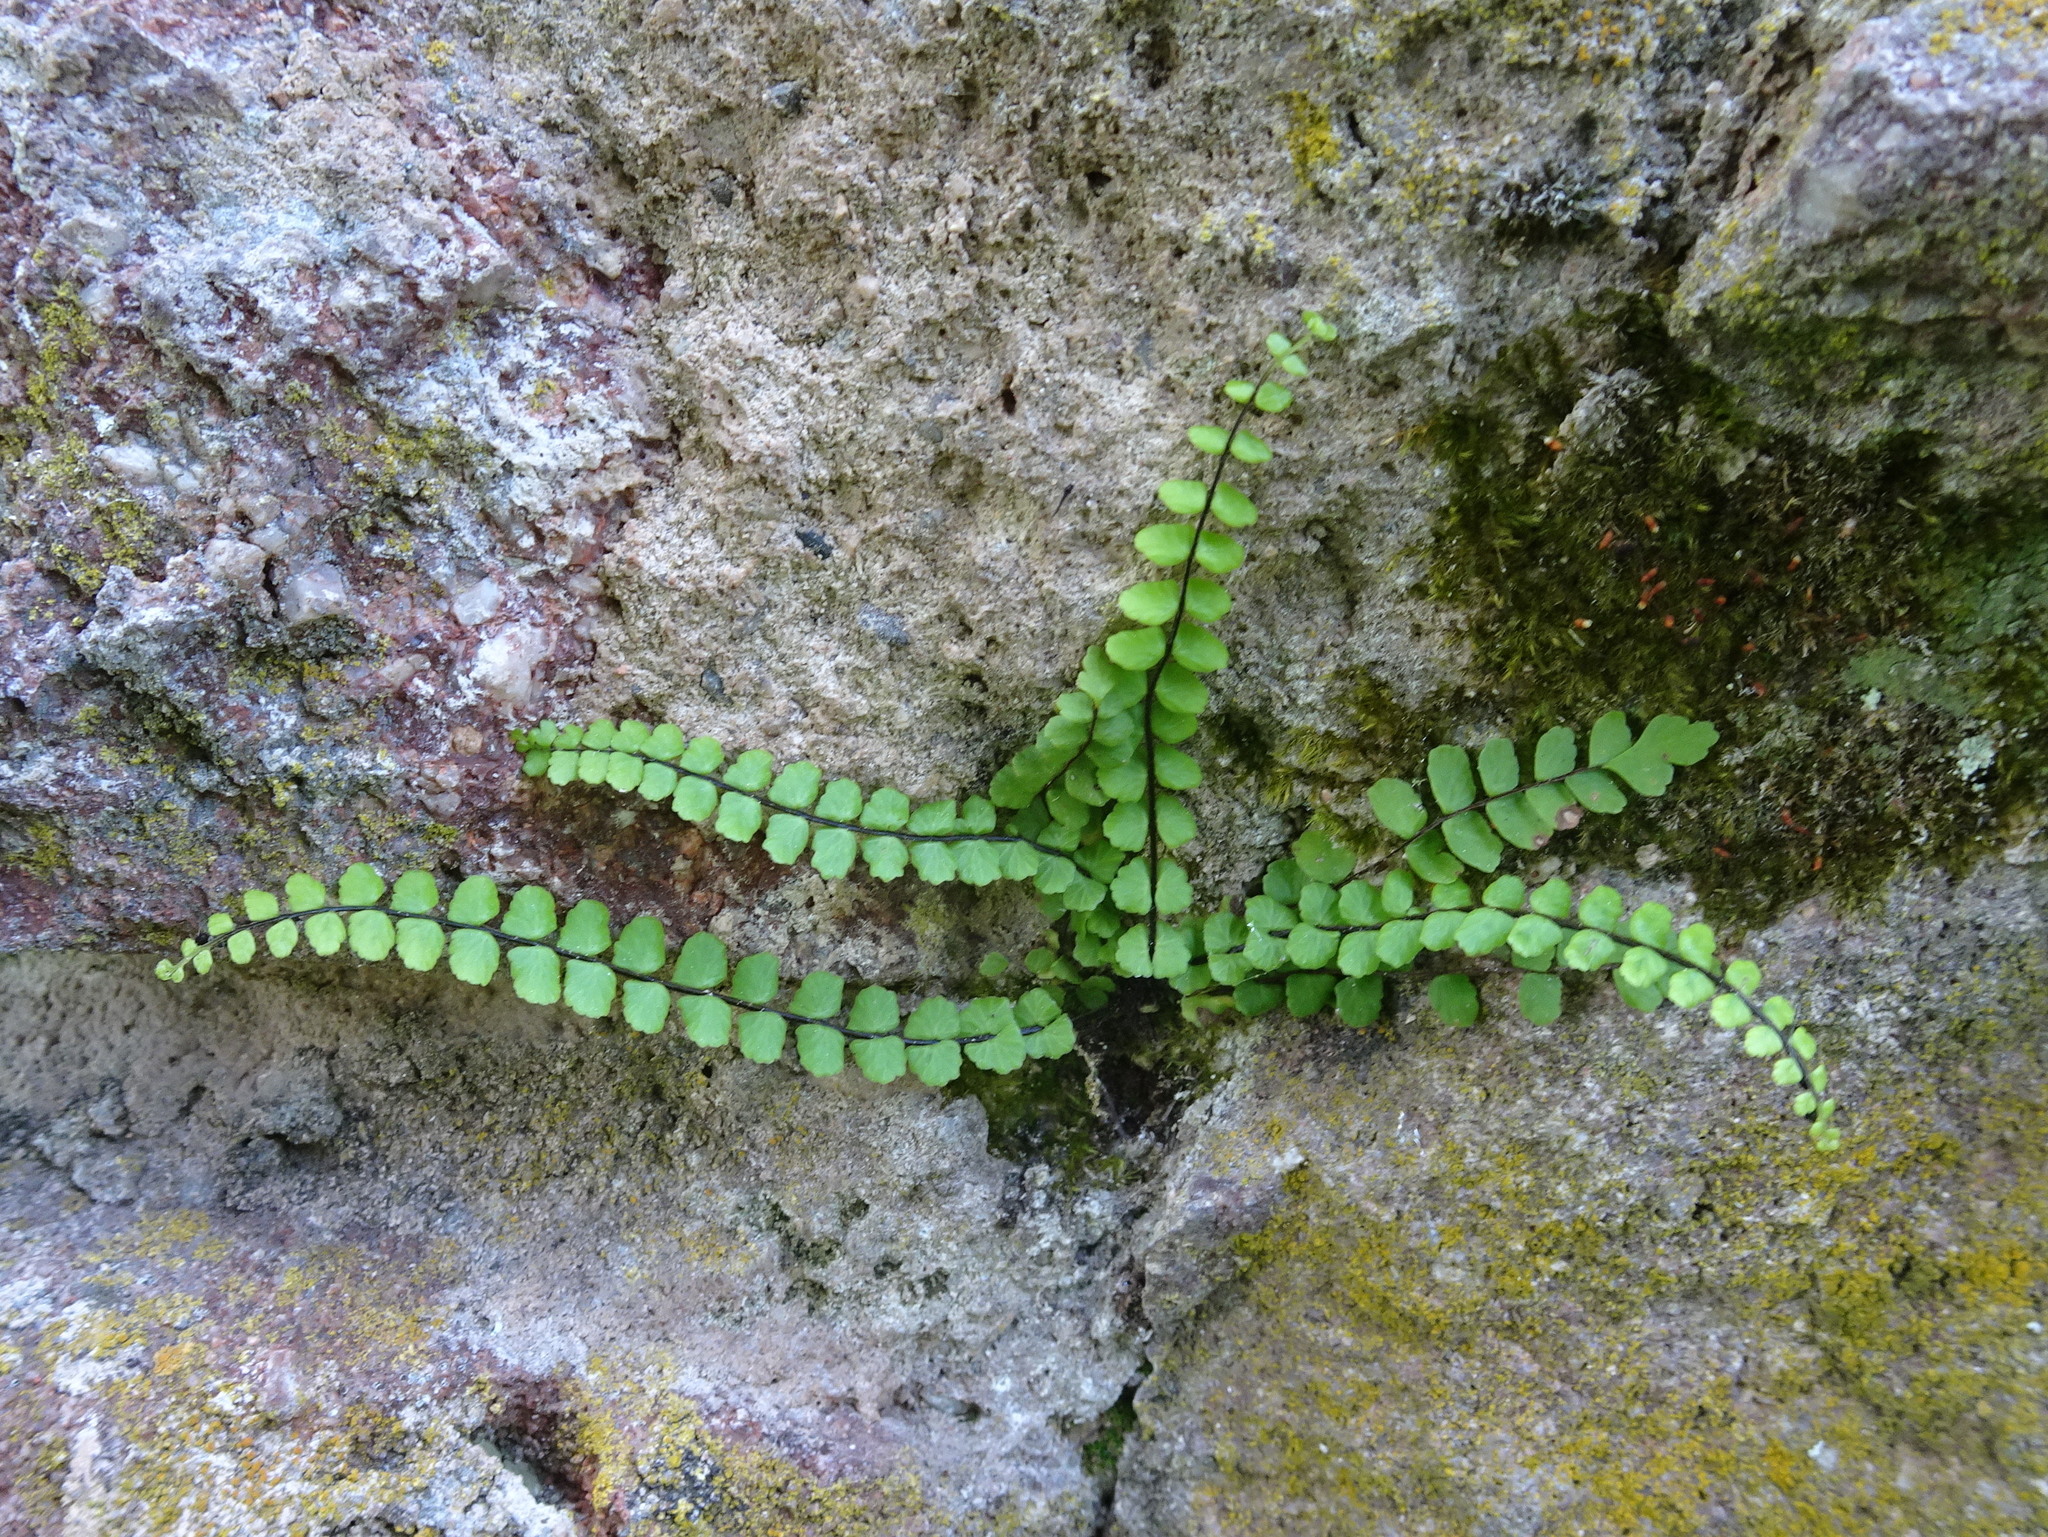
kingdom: Plantae
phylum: Tracheophyta
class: Polypodiopsida
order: Polypodiales
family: Aspleniaceae
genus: Asplenium
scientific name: Asplenium trichomanes
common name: Maidenhair spleenwort
